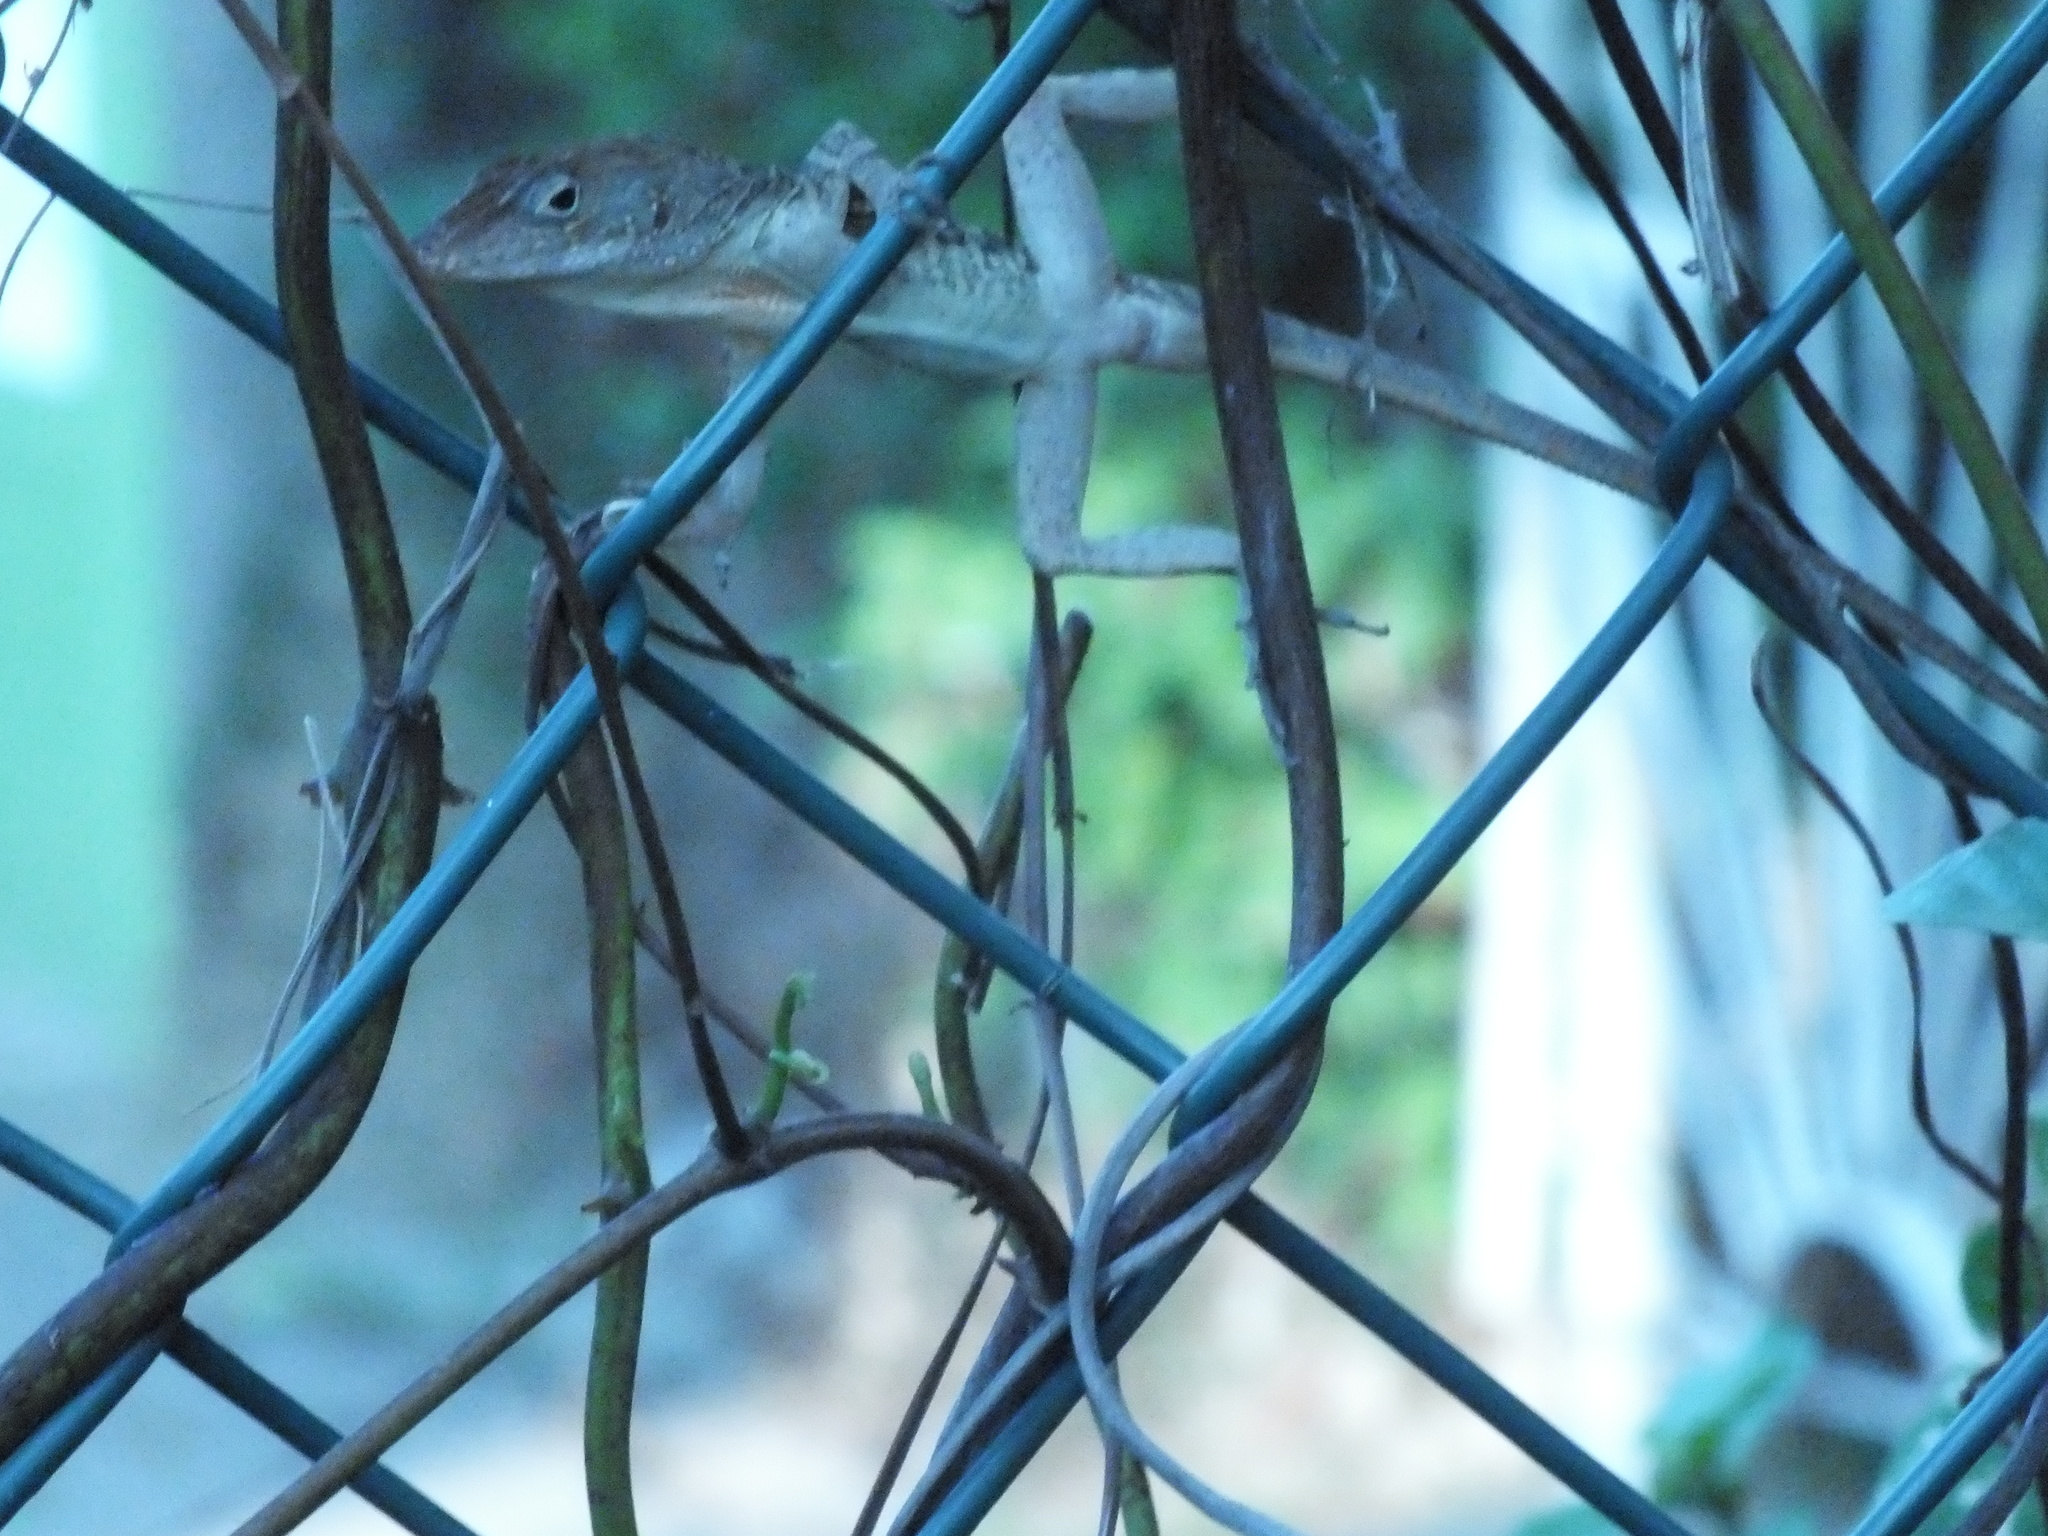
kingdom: Animalia
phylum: Chordata
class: Squamata
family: Dactyloidae
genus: Anolis
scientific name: Anolis lineatopus
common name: Stripefoot anole
